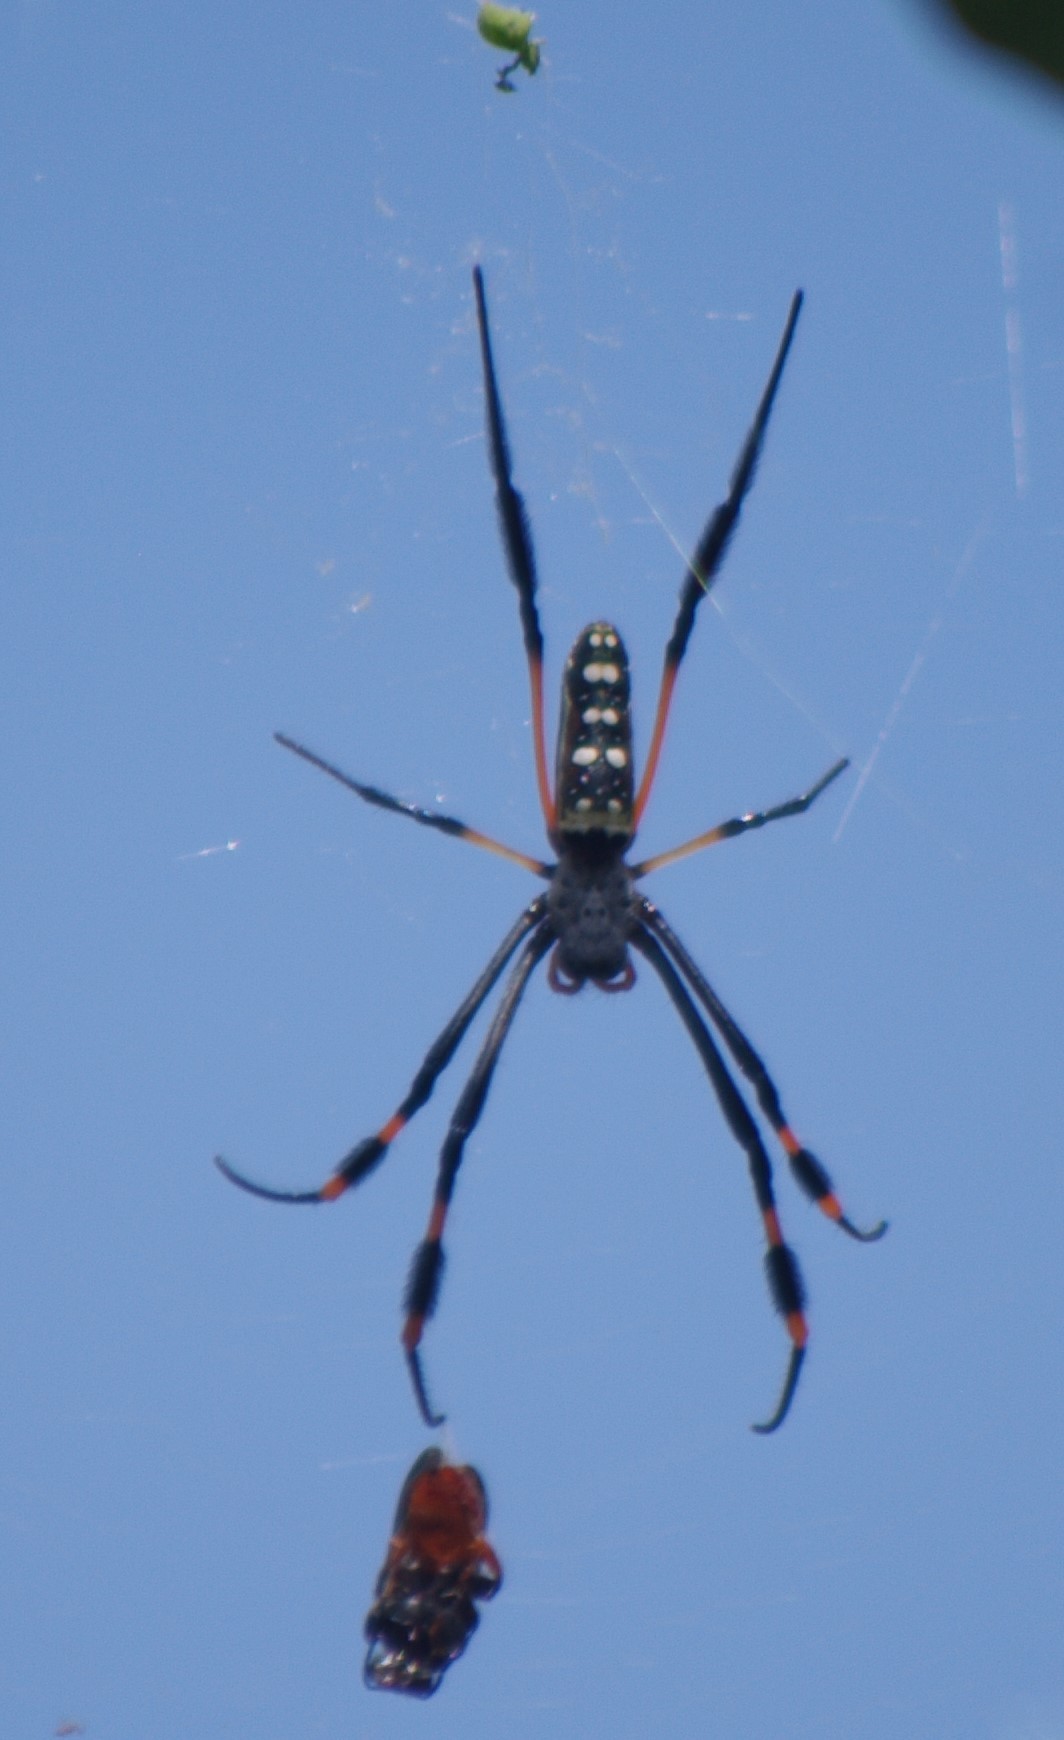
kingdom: Animalia
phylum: Arthropoda
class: Arachnida
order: Araneae
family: Araneidae
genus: Trichonephila
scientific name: Trichonephila senegalensis
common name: Banded golden orb weaver
